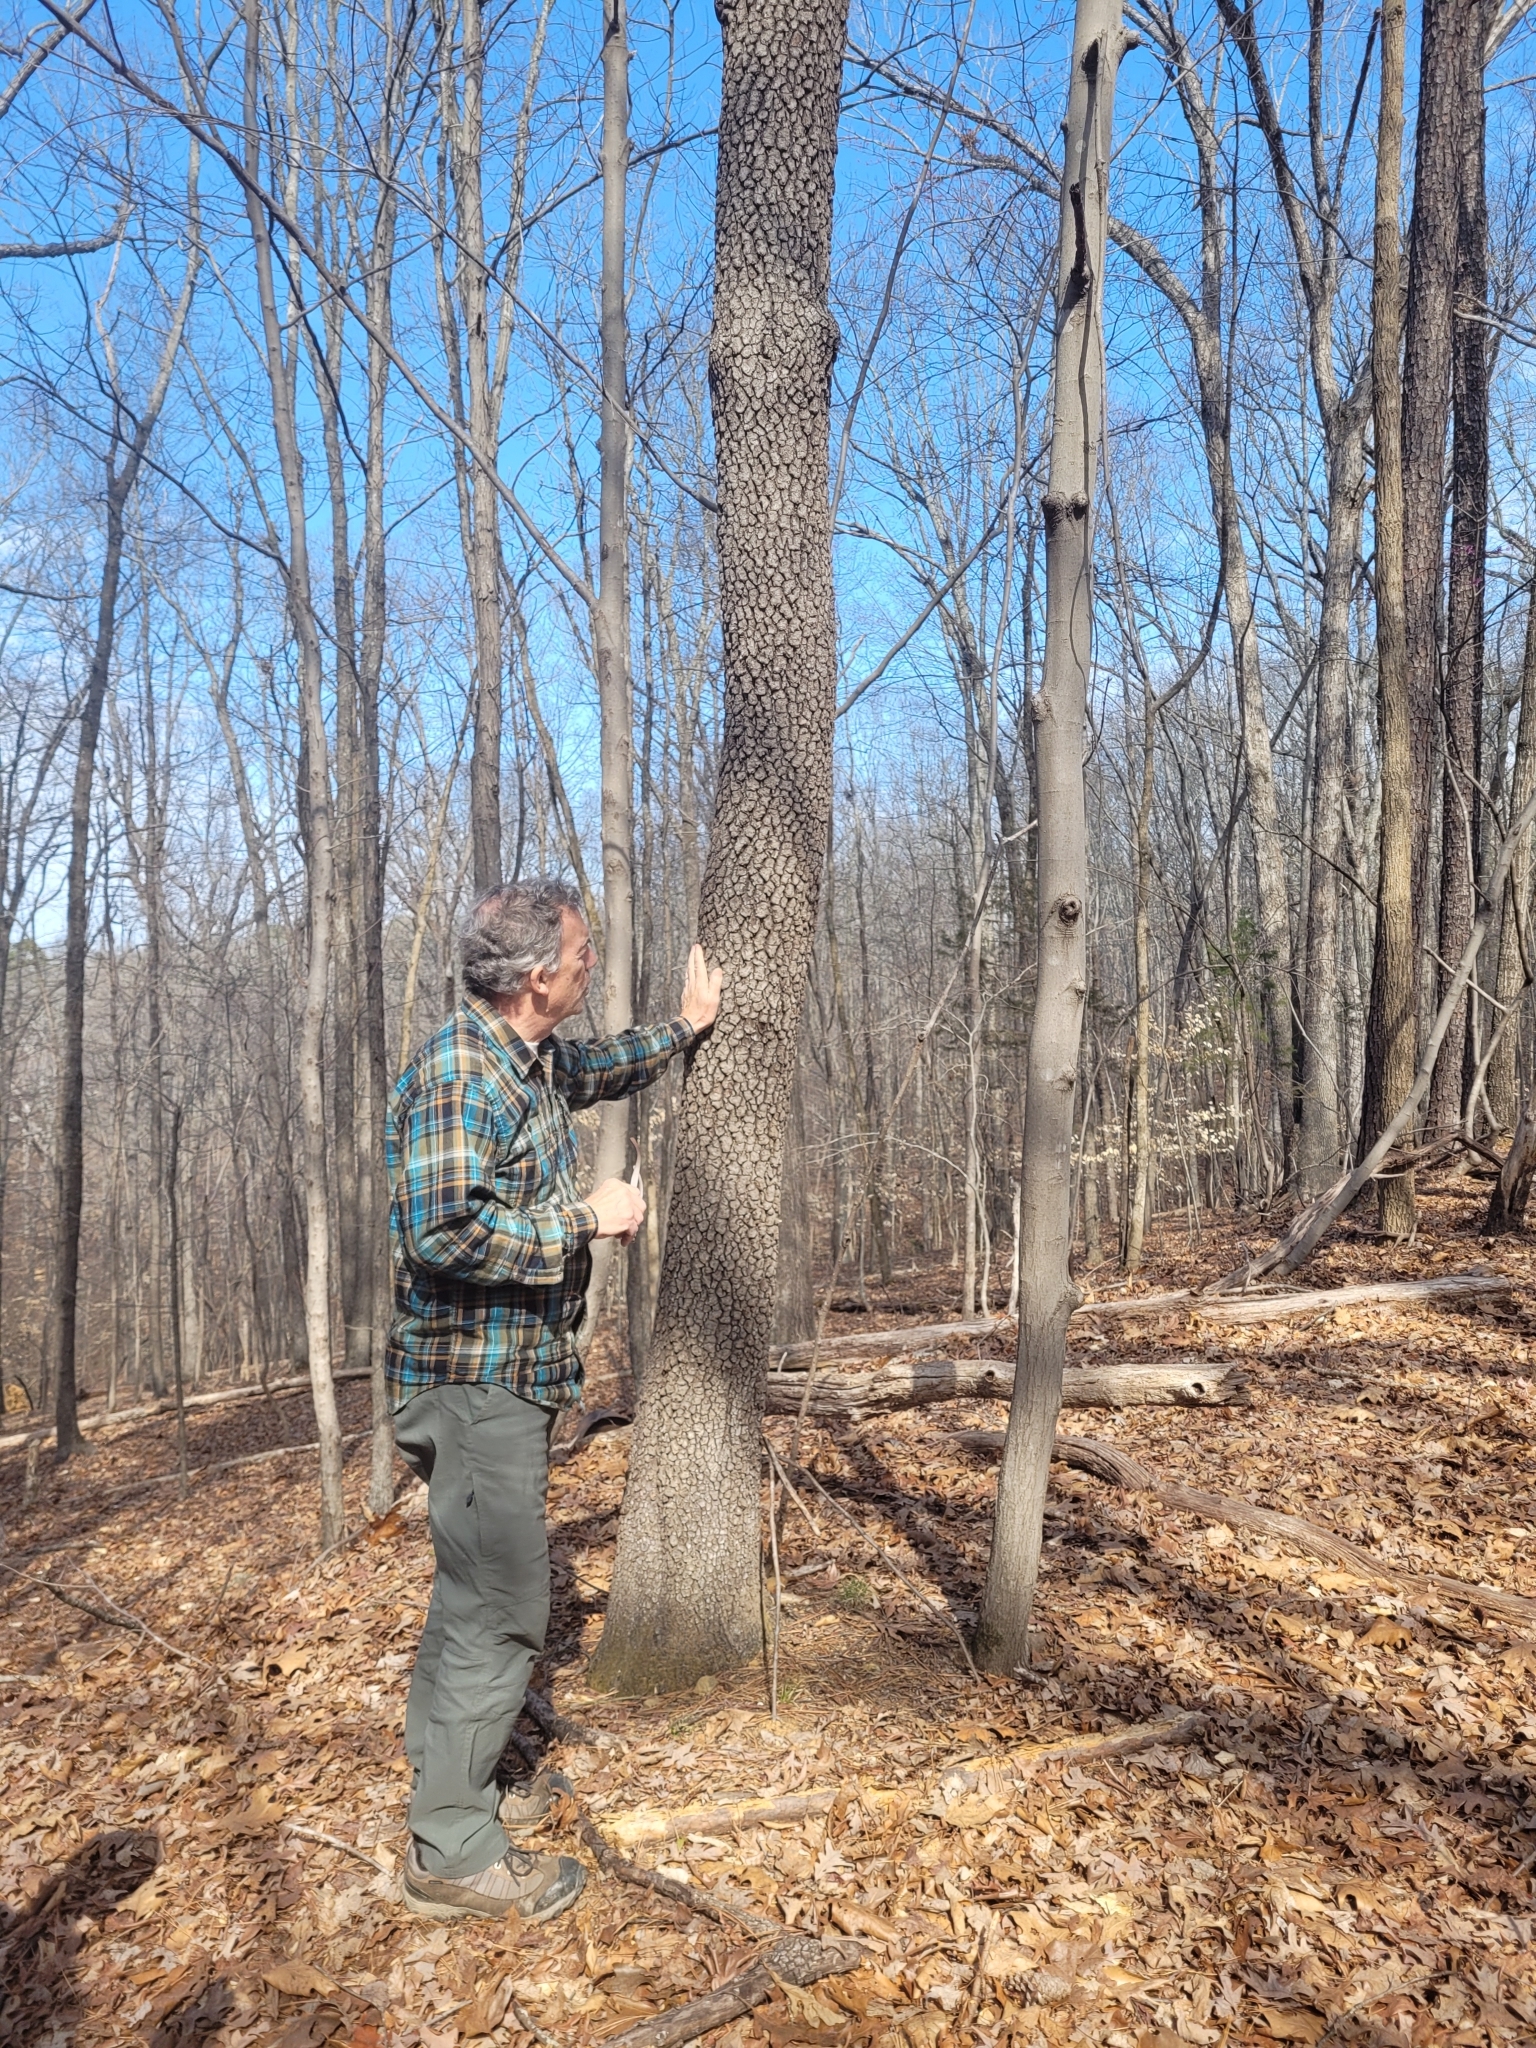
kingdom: Plantae
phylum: Tracheophyta
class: Magnoliopsida
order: Ericales
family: Ebenaceae
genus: Diospyros
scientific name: Diospyros virginiana
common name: Persimmon
